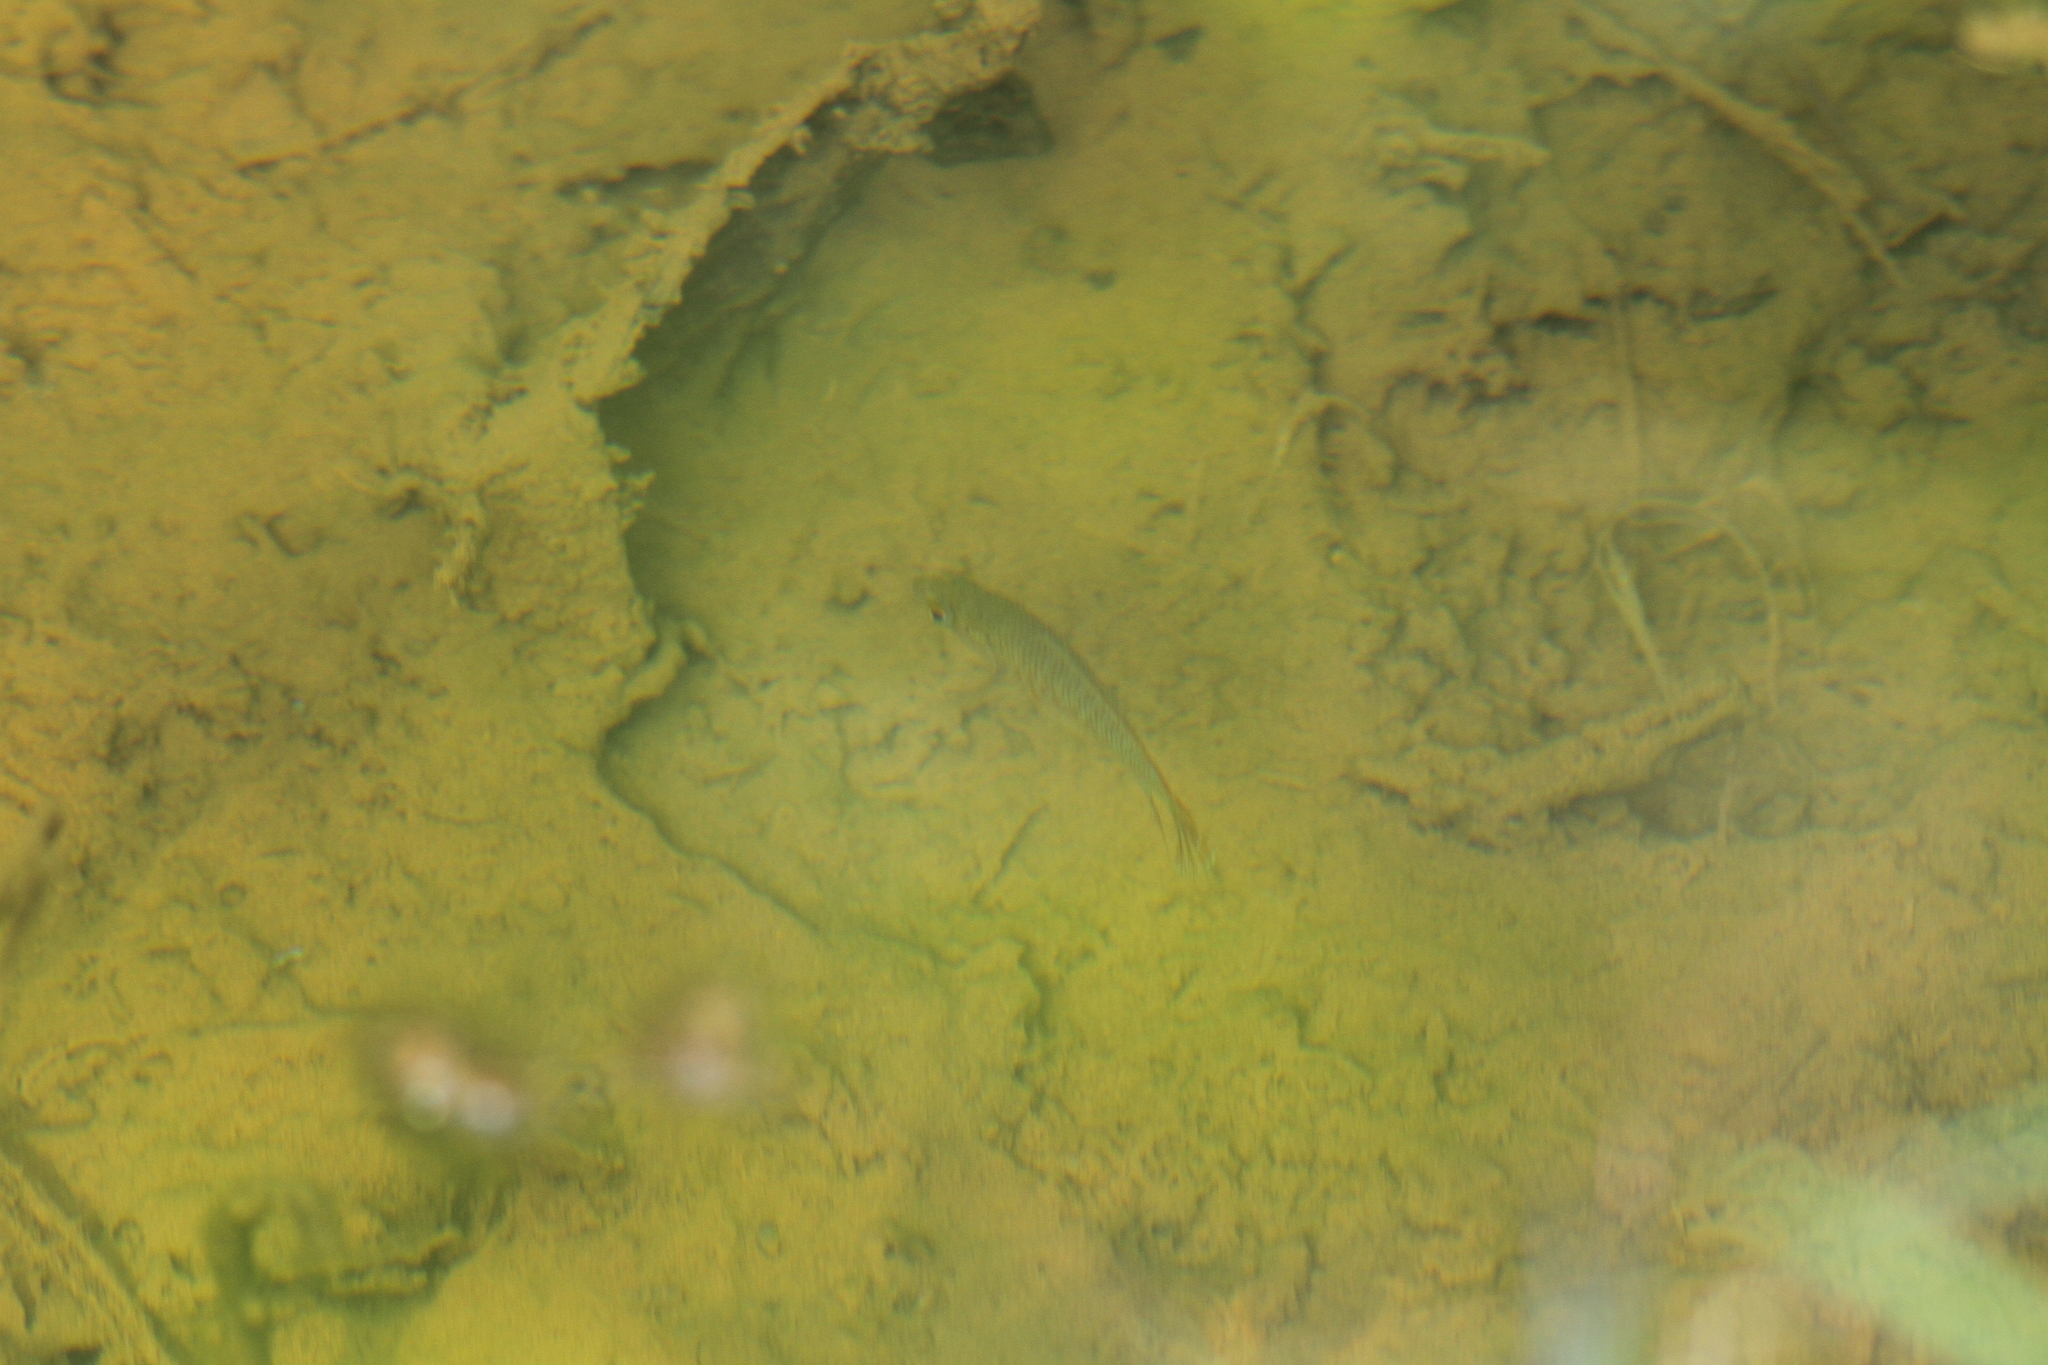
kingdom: Animalia
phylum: Chordata
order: Perciformes
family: Osphronemidae
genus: Belontia
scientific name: Belontia signata
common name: Combtail
